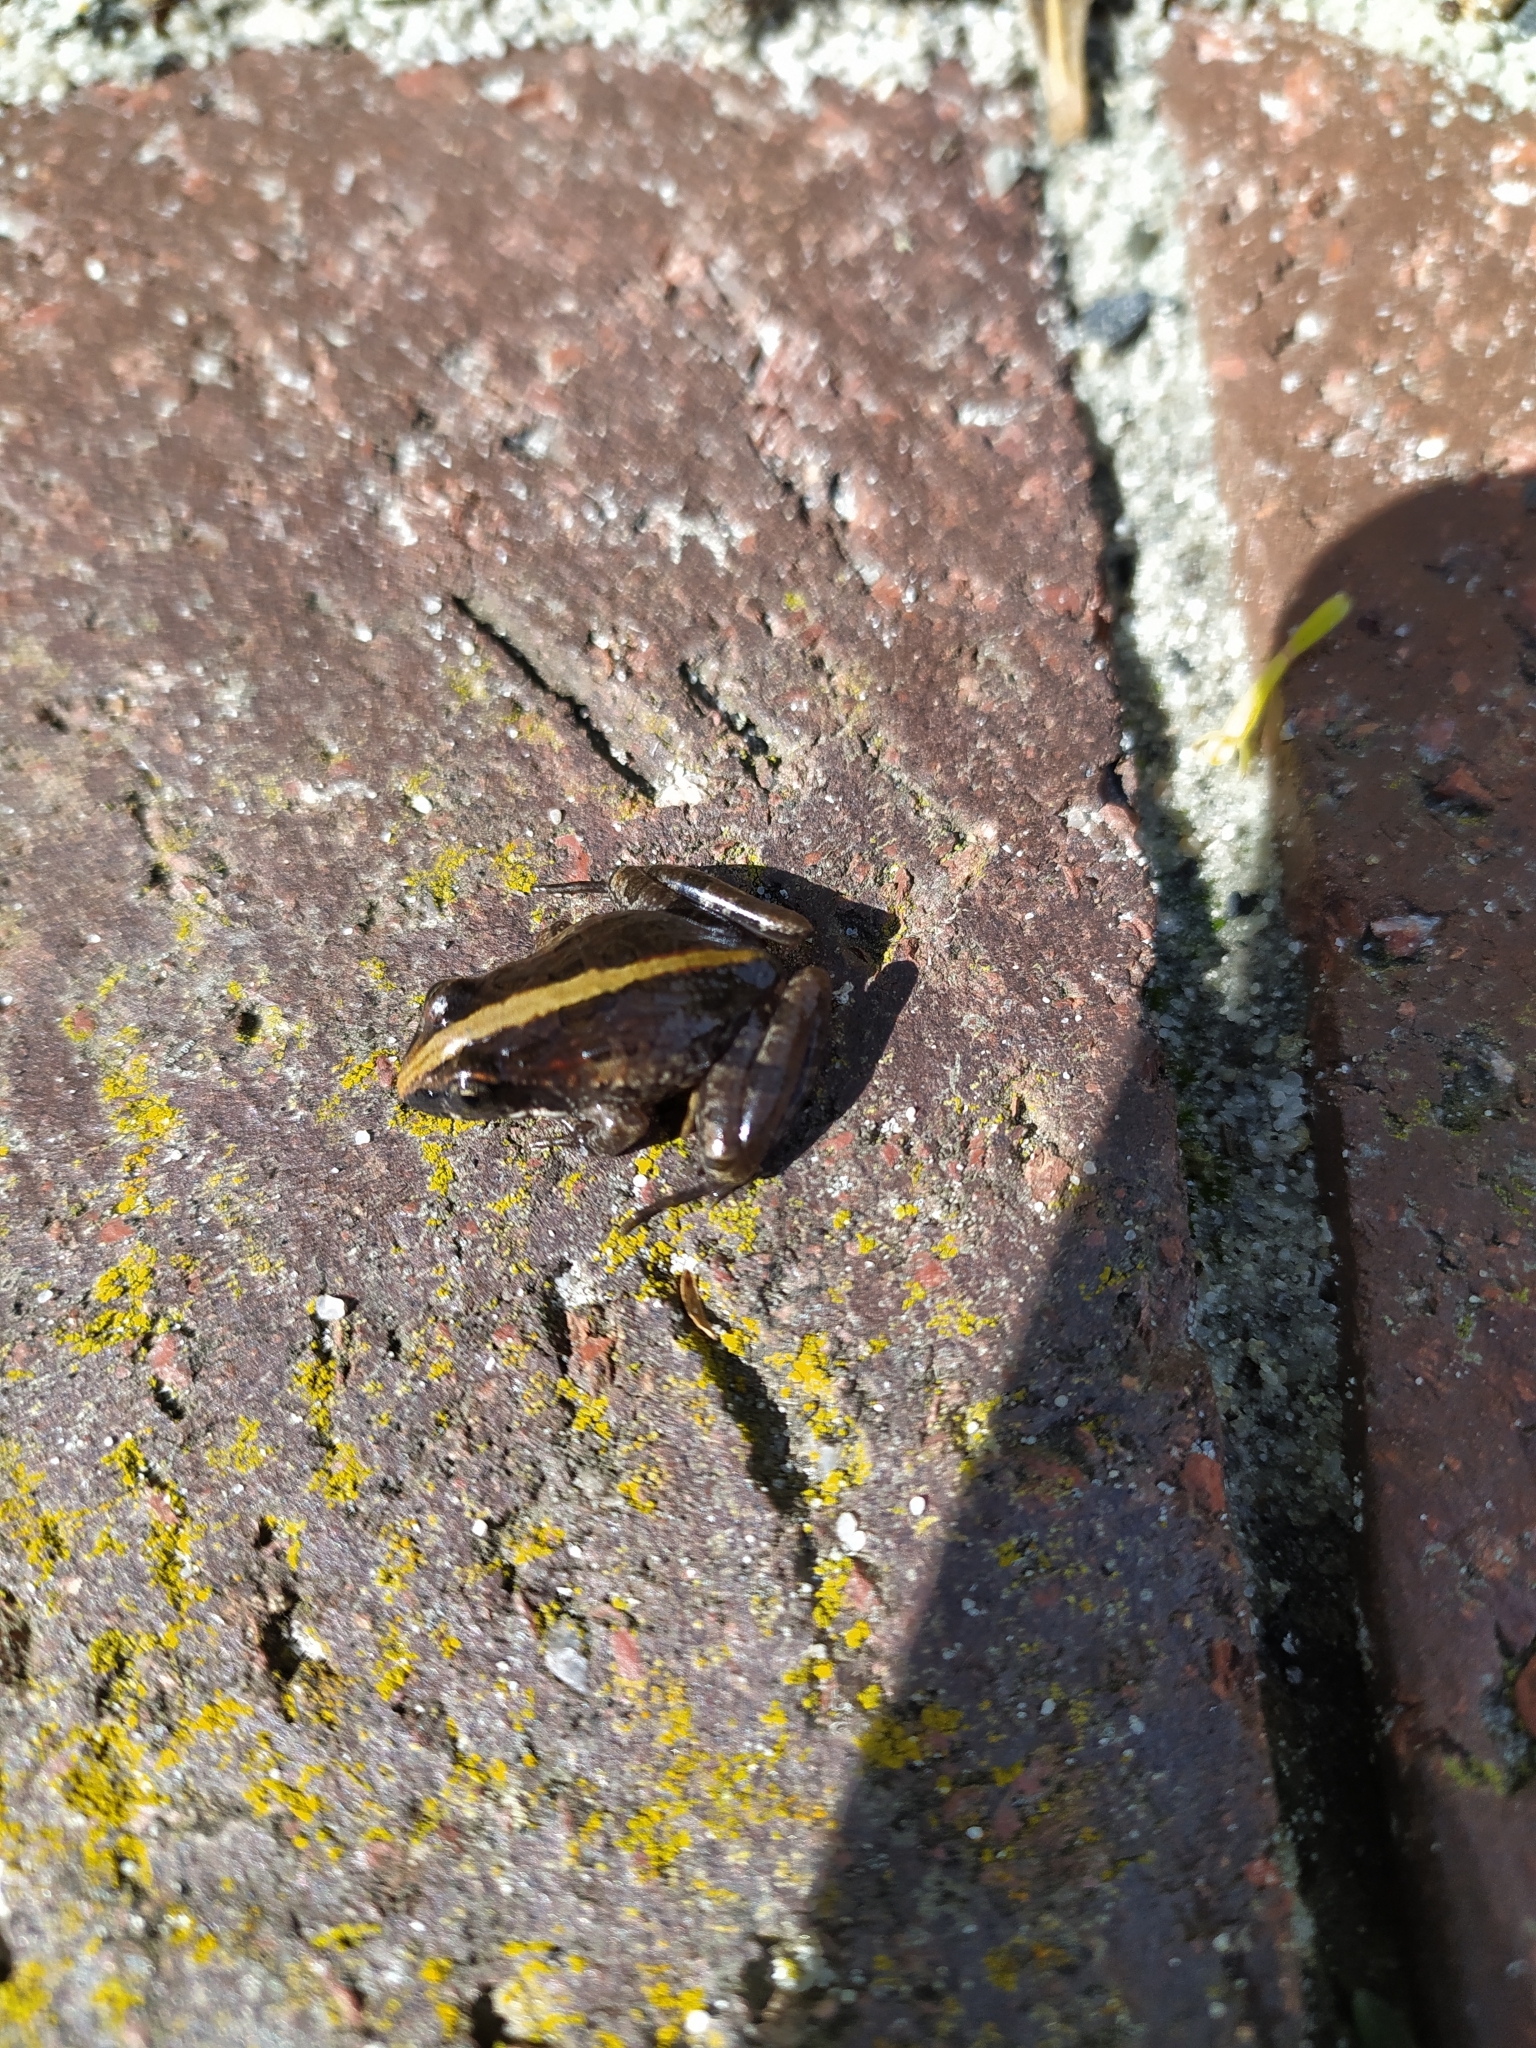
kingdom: Animalia
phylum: Chordata
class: Amphibia
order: Anura
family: Pyxicephalidae
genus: Strongylopus
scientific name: Strongylopus grayii
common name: Gray's stream frog
